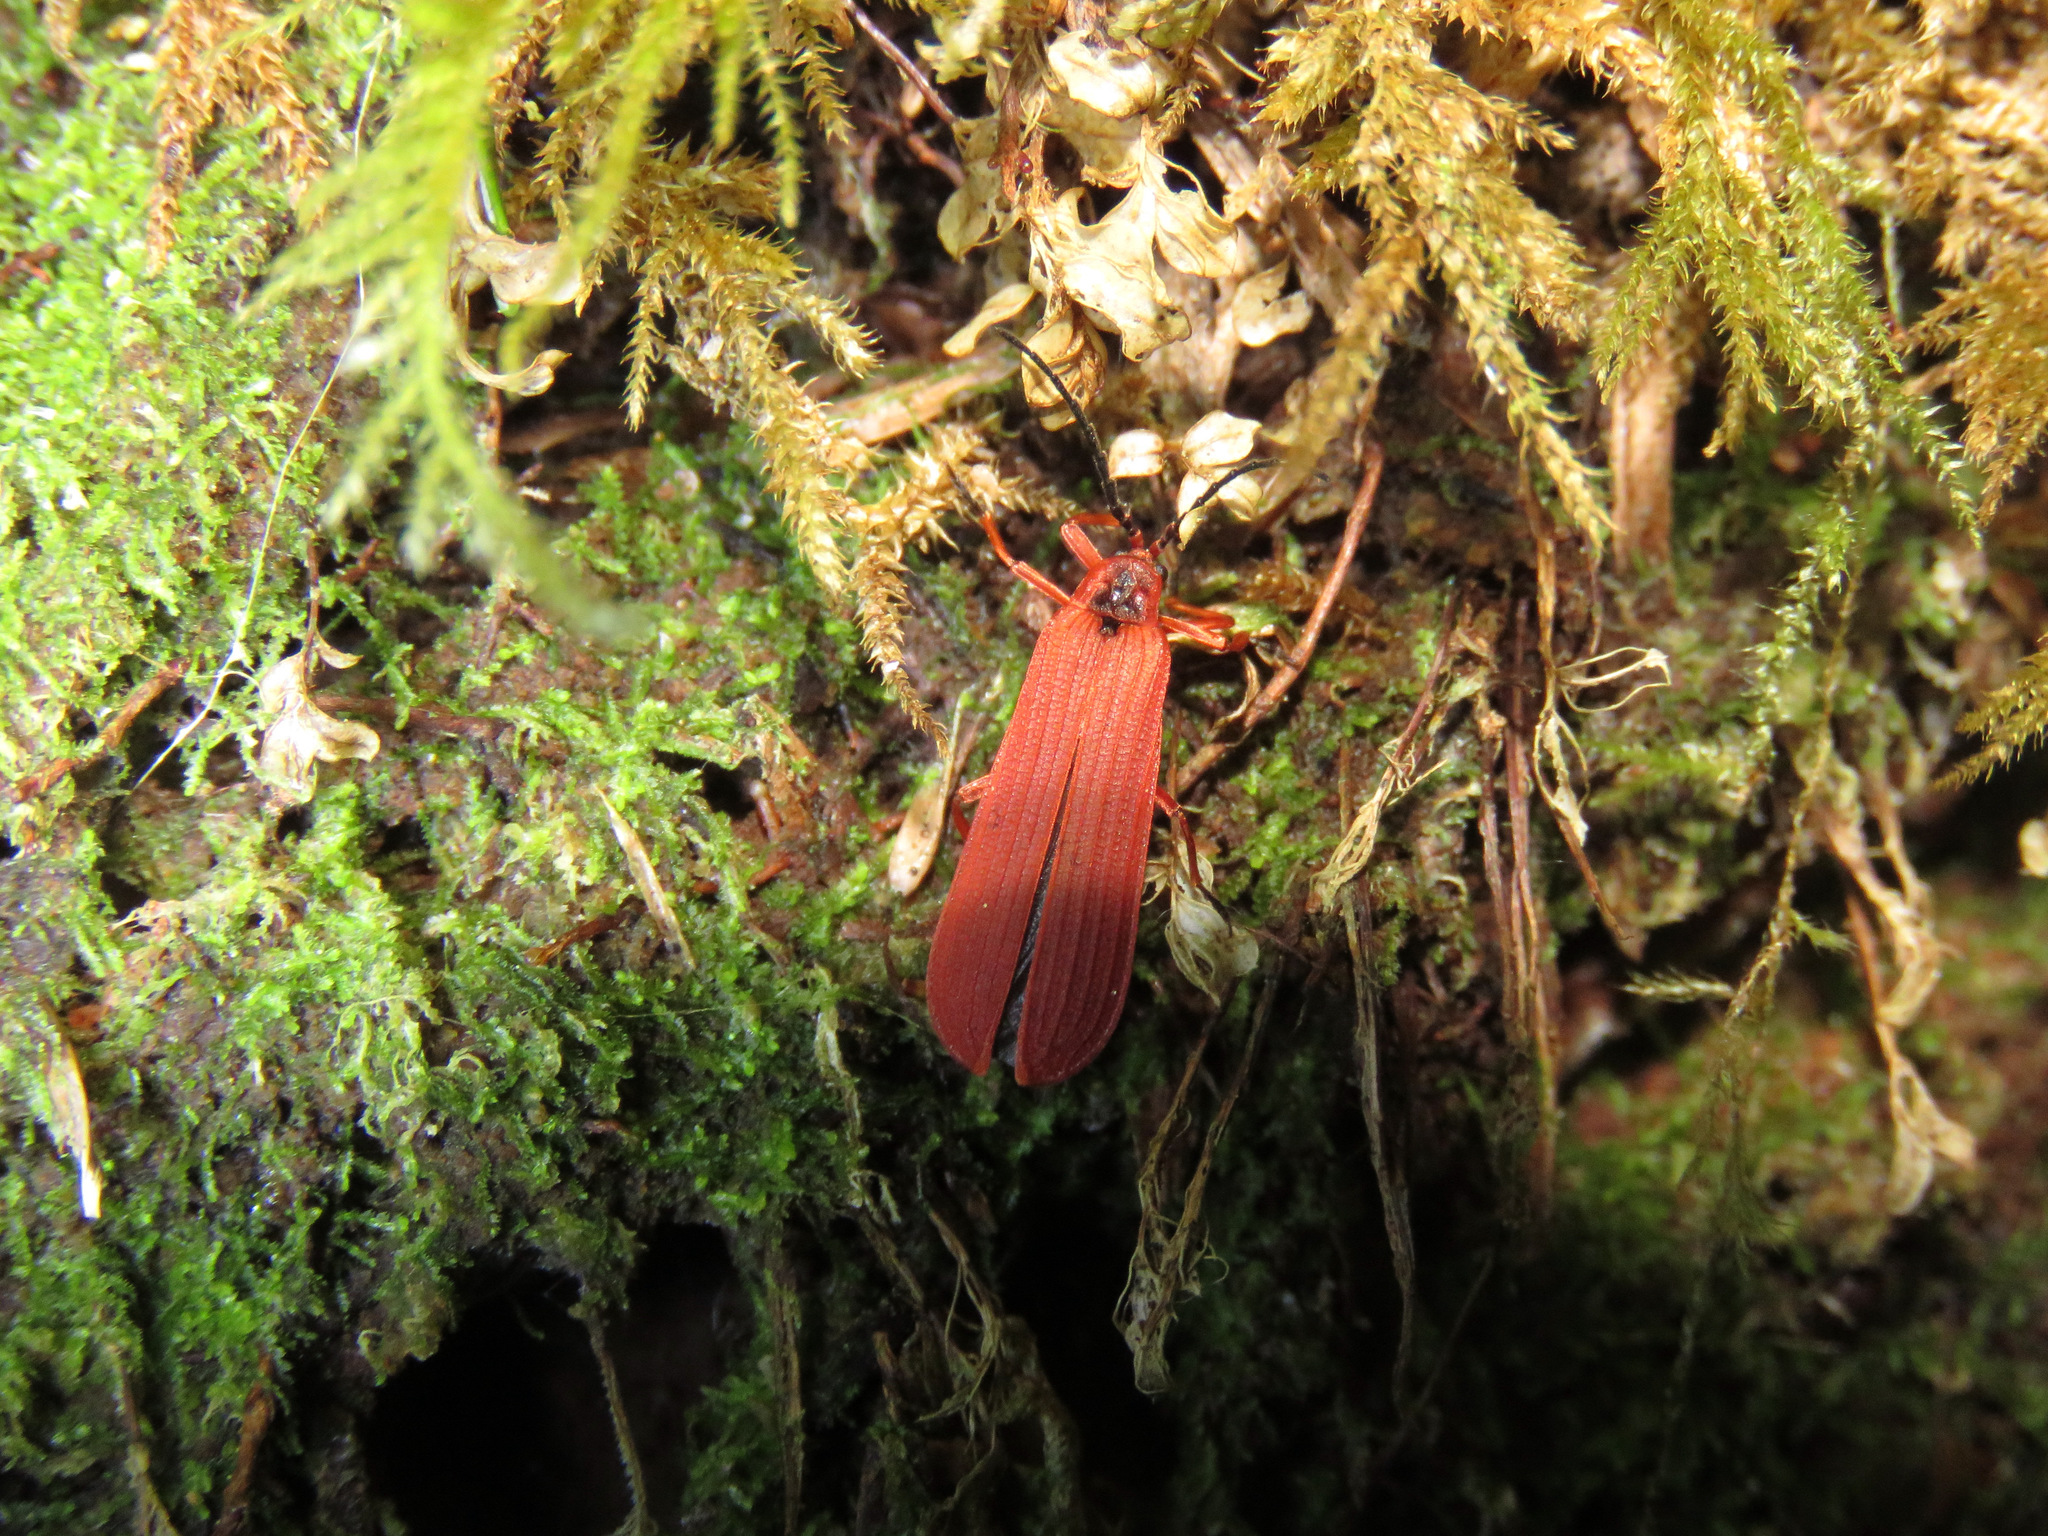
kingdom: Animalia
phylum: Arthropoda
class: Insecta
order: Coleoptera
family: Lycidae
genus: Dictyoptera
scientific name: Dictyoptera simplicipes
